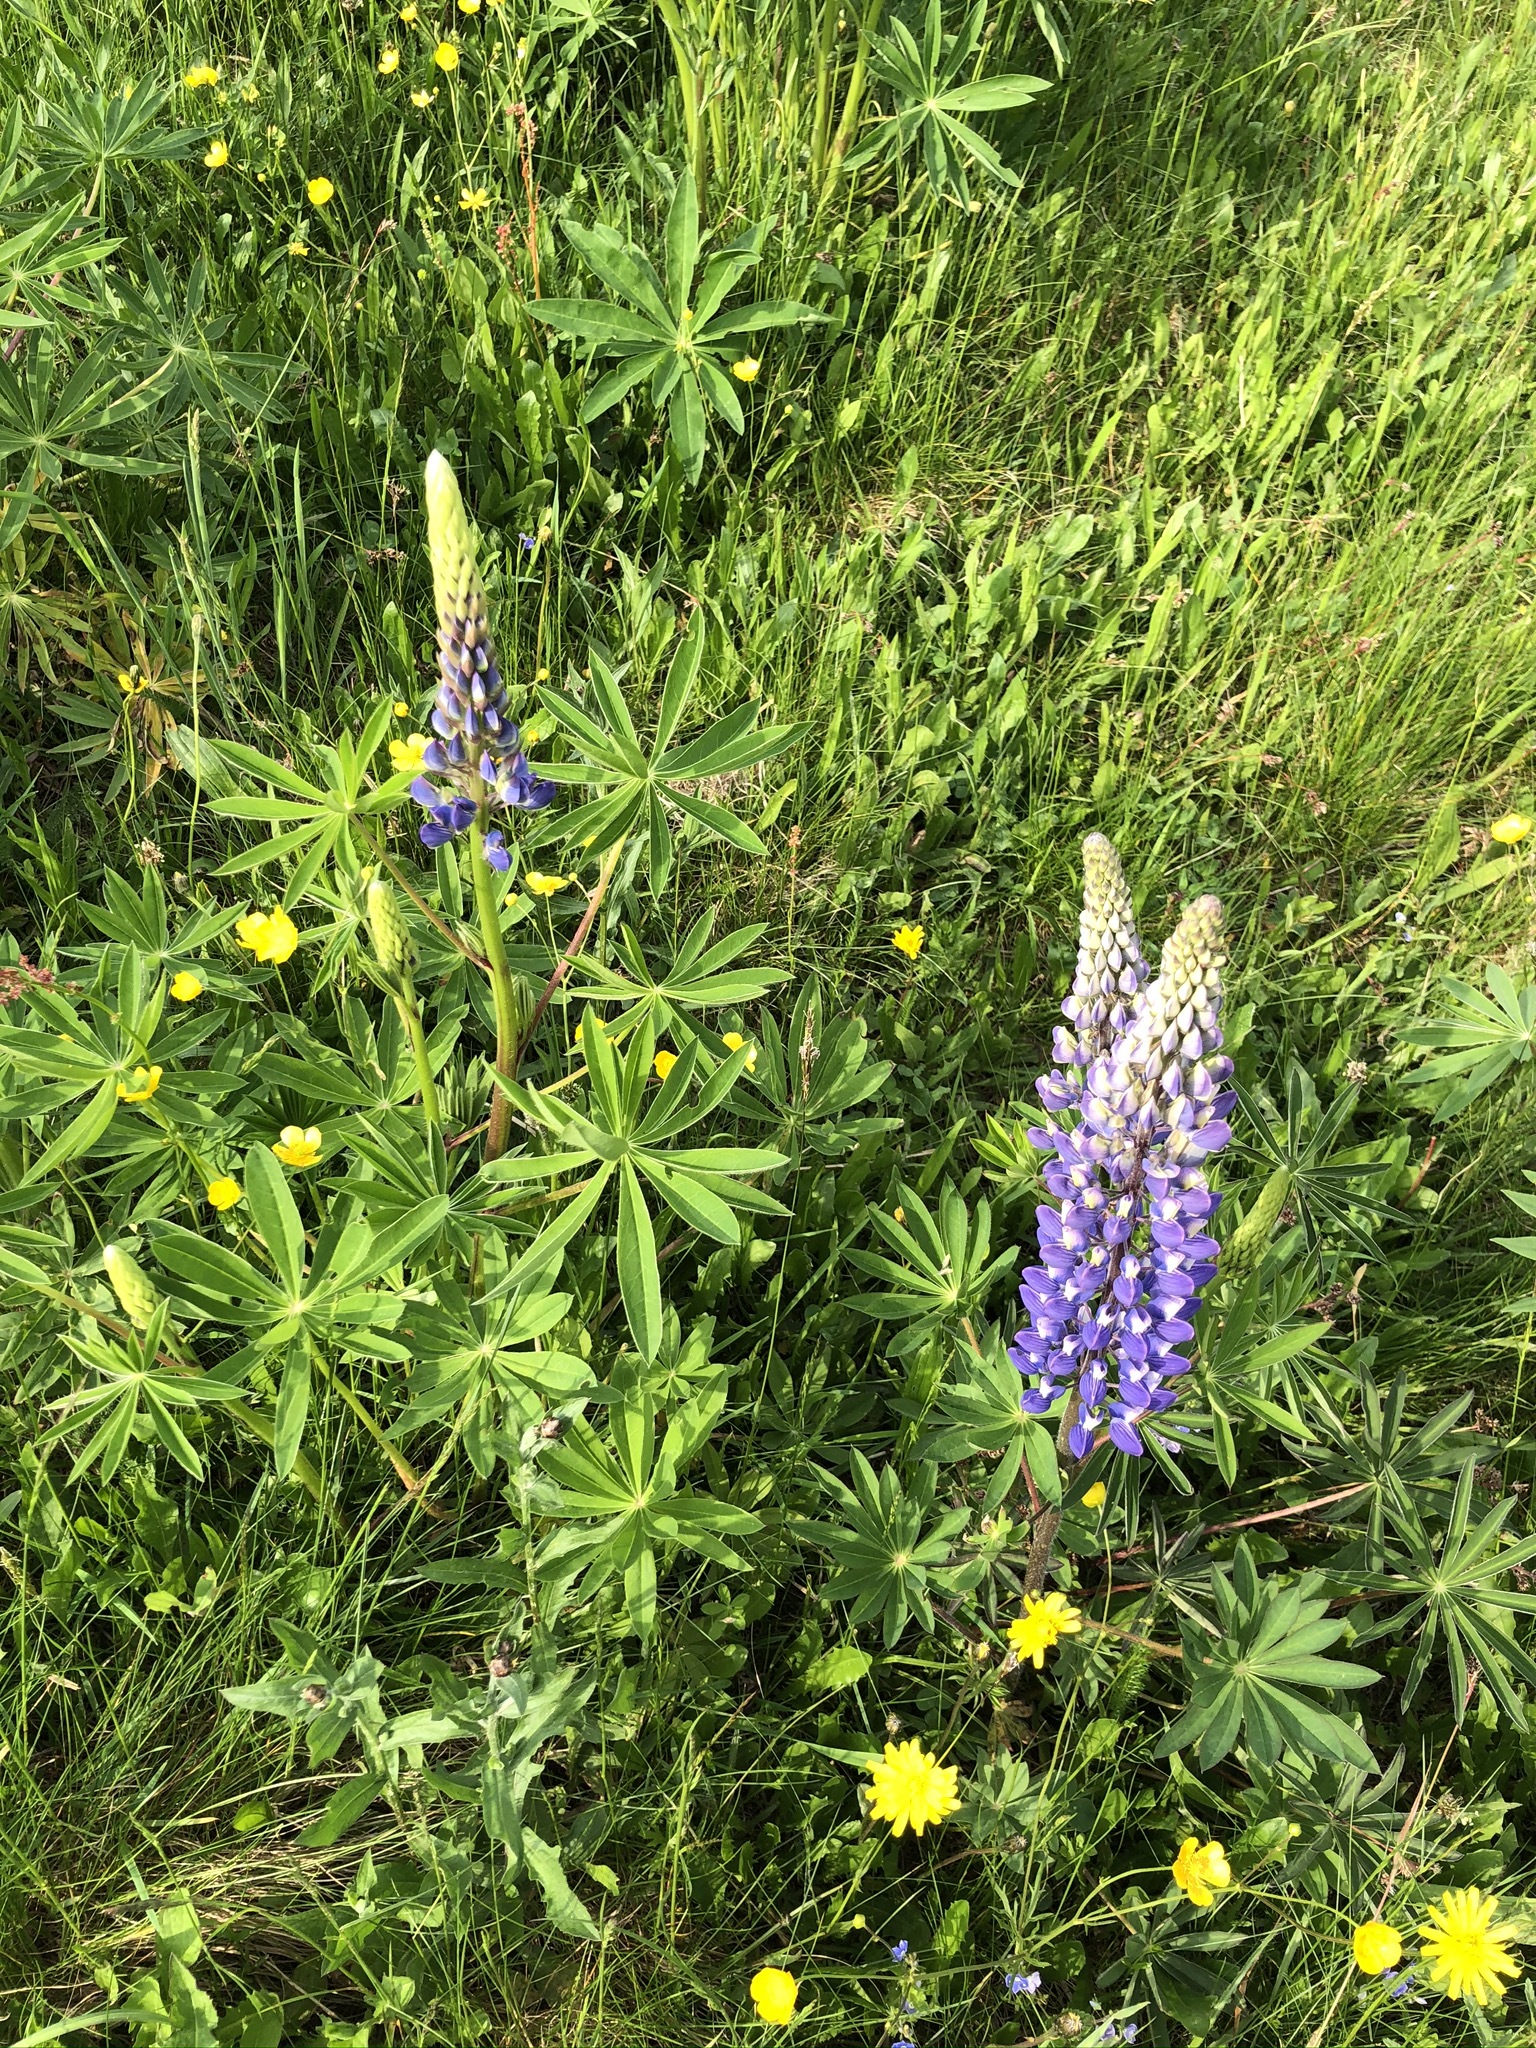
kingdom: Plantae
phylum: Tracheophyta
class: Magnoliopsida
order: Fabales
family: Fabaceae
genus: Lupinus
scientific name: Lupinus polyphyllus
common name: Garden lupin
